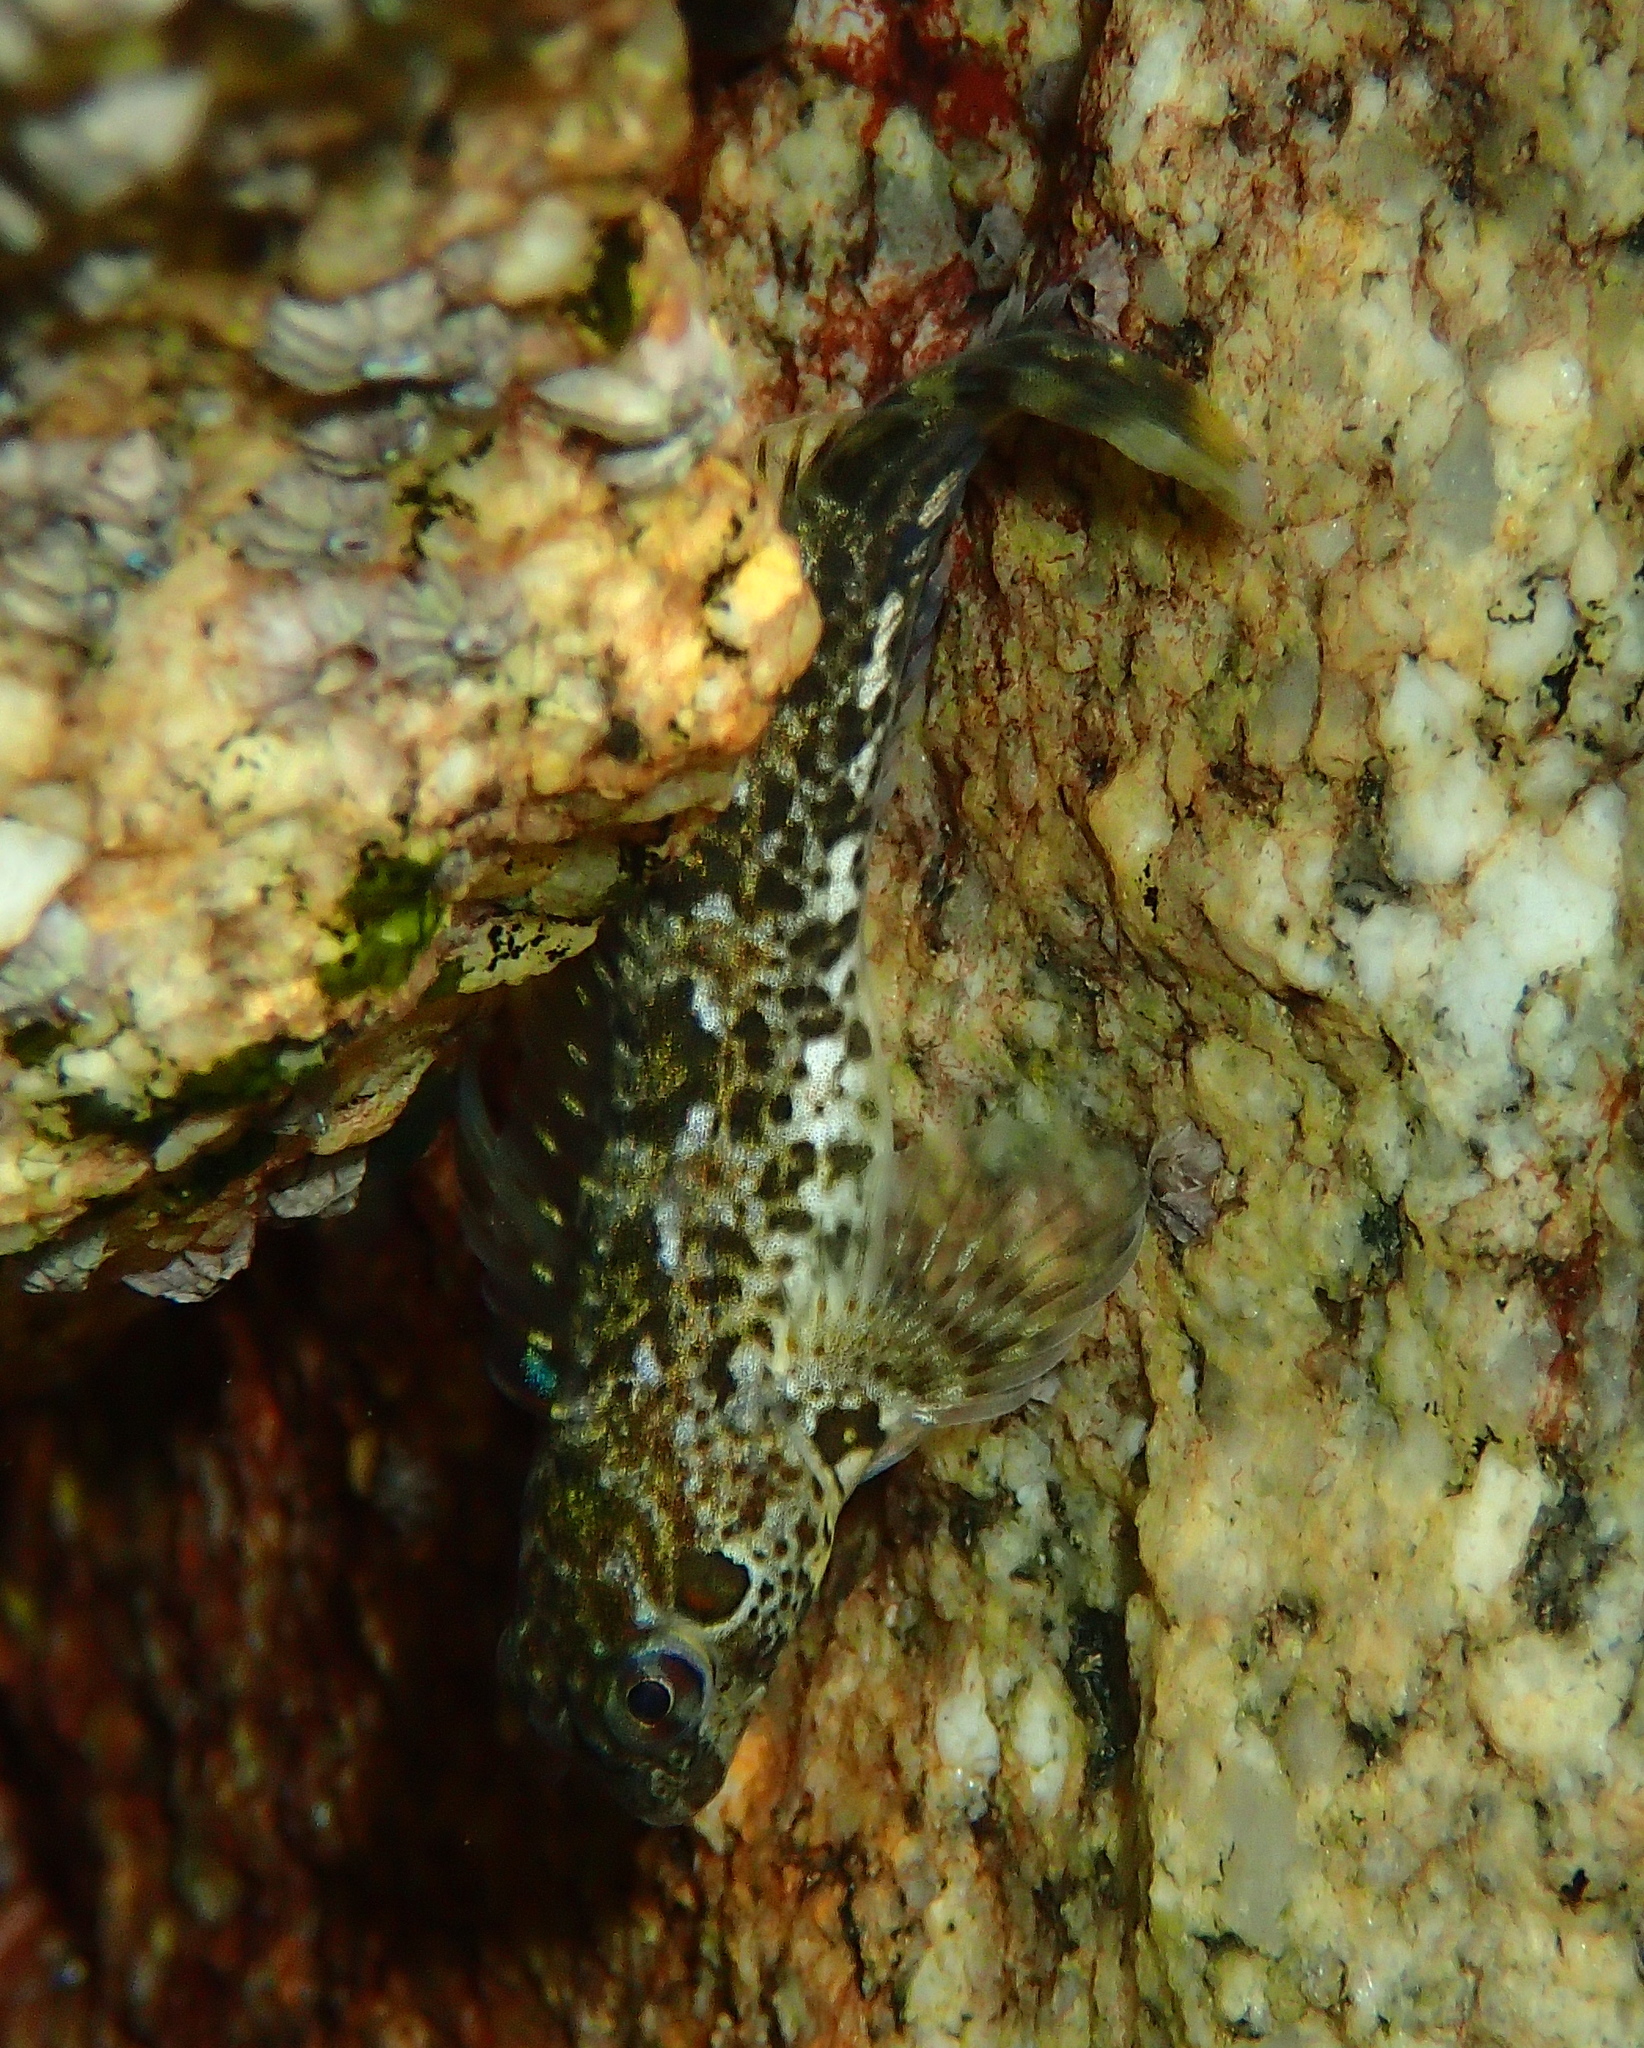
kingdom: Animalia
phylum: Chordata
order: Perciformes
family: Blenniidae
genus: Lipophrys
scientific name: Lipophrys pholis
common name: Shanny
